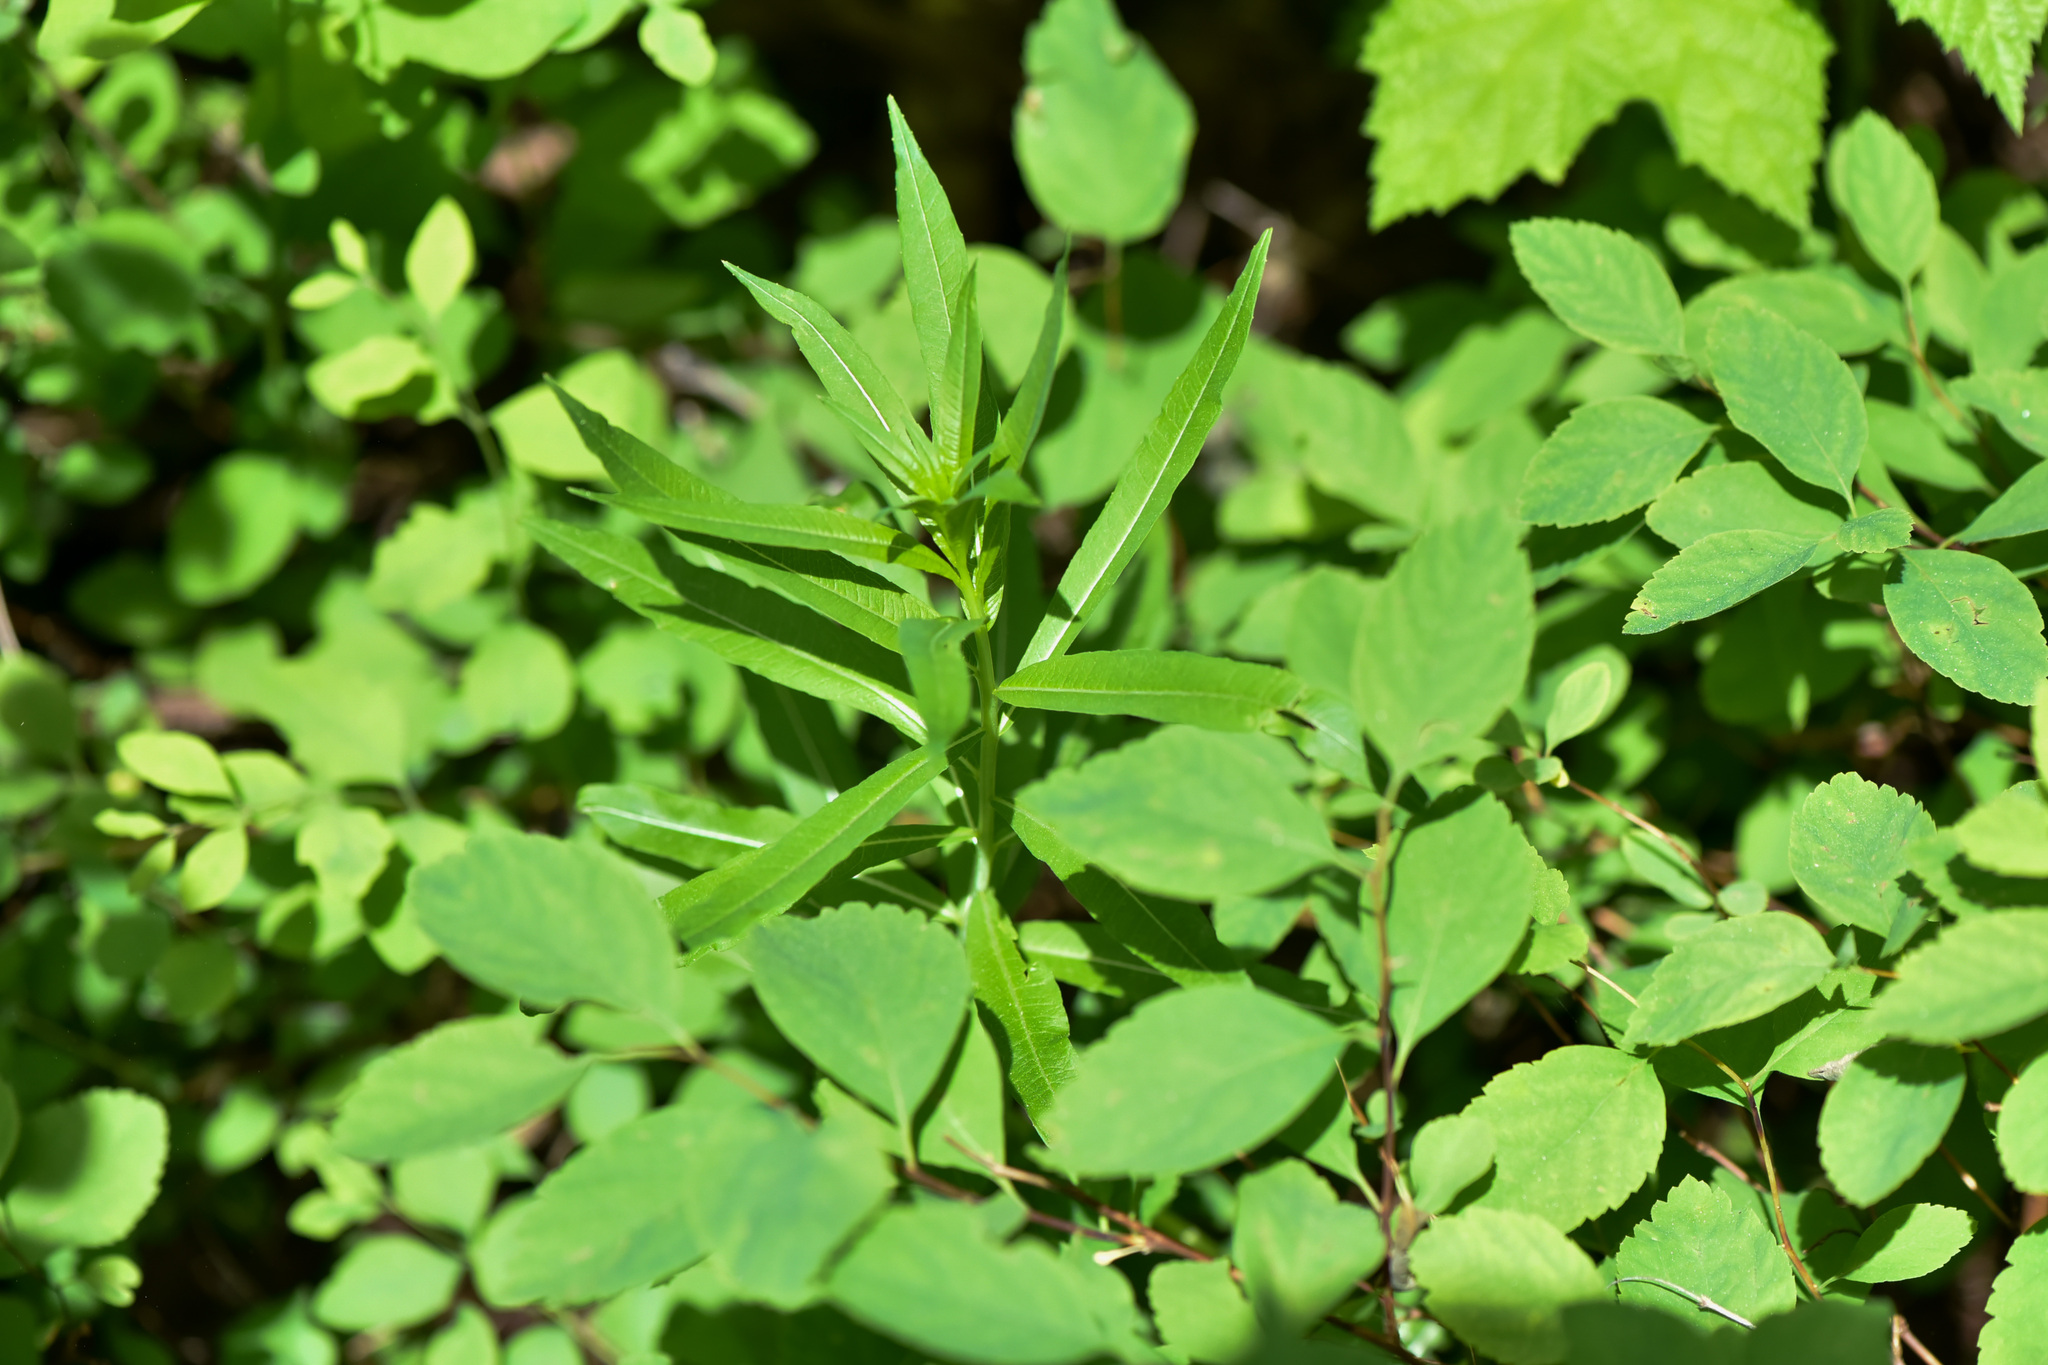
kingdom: Plantae
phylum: Tracheophyta
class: Magnoliopsida
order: Myrtales
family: Onagraceae
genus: Chamaenerion
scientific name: Chamaenerion angustifolium
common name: Fireweed
